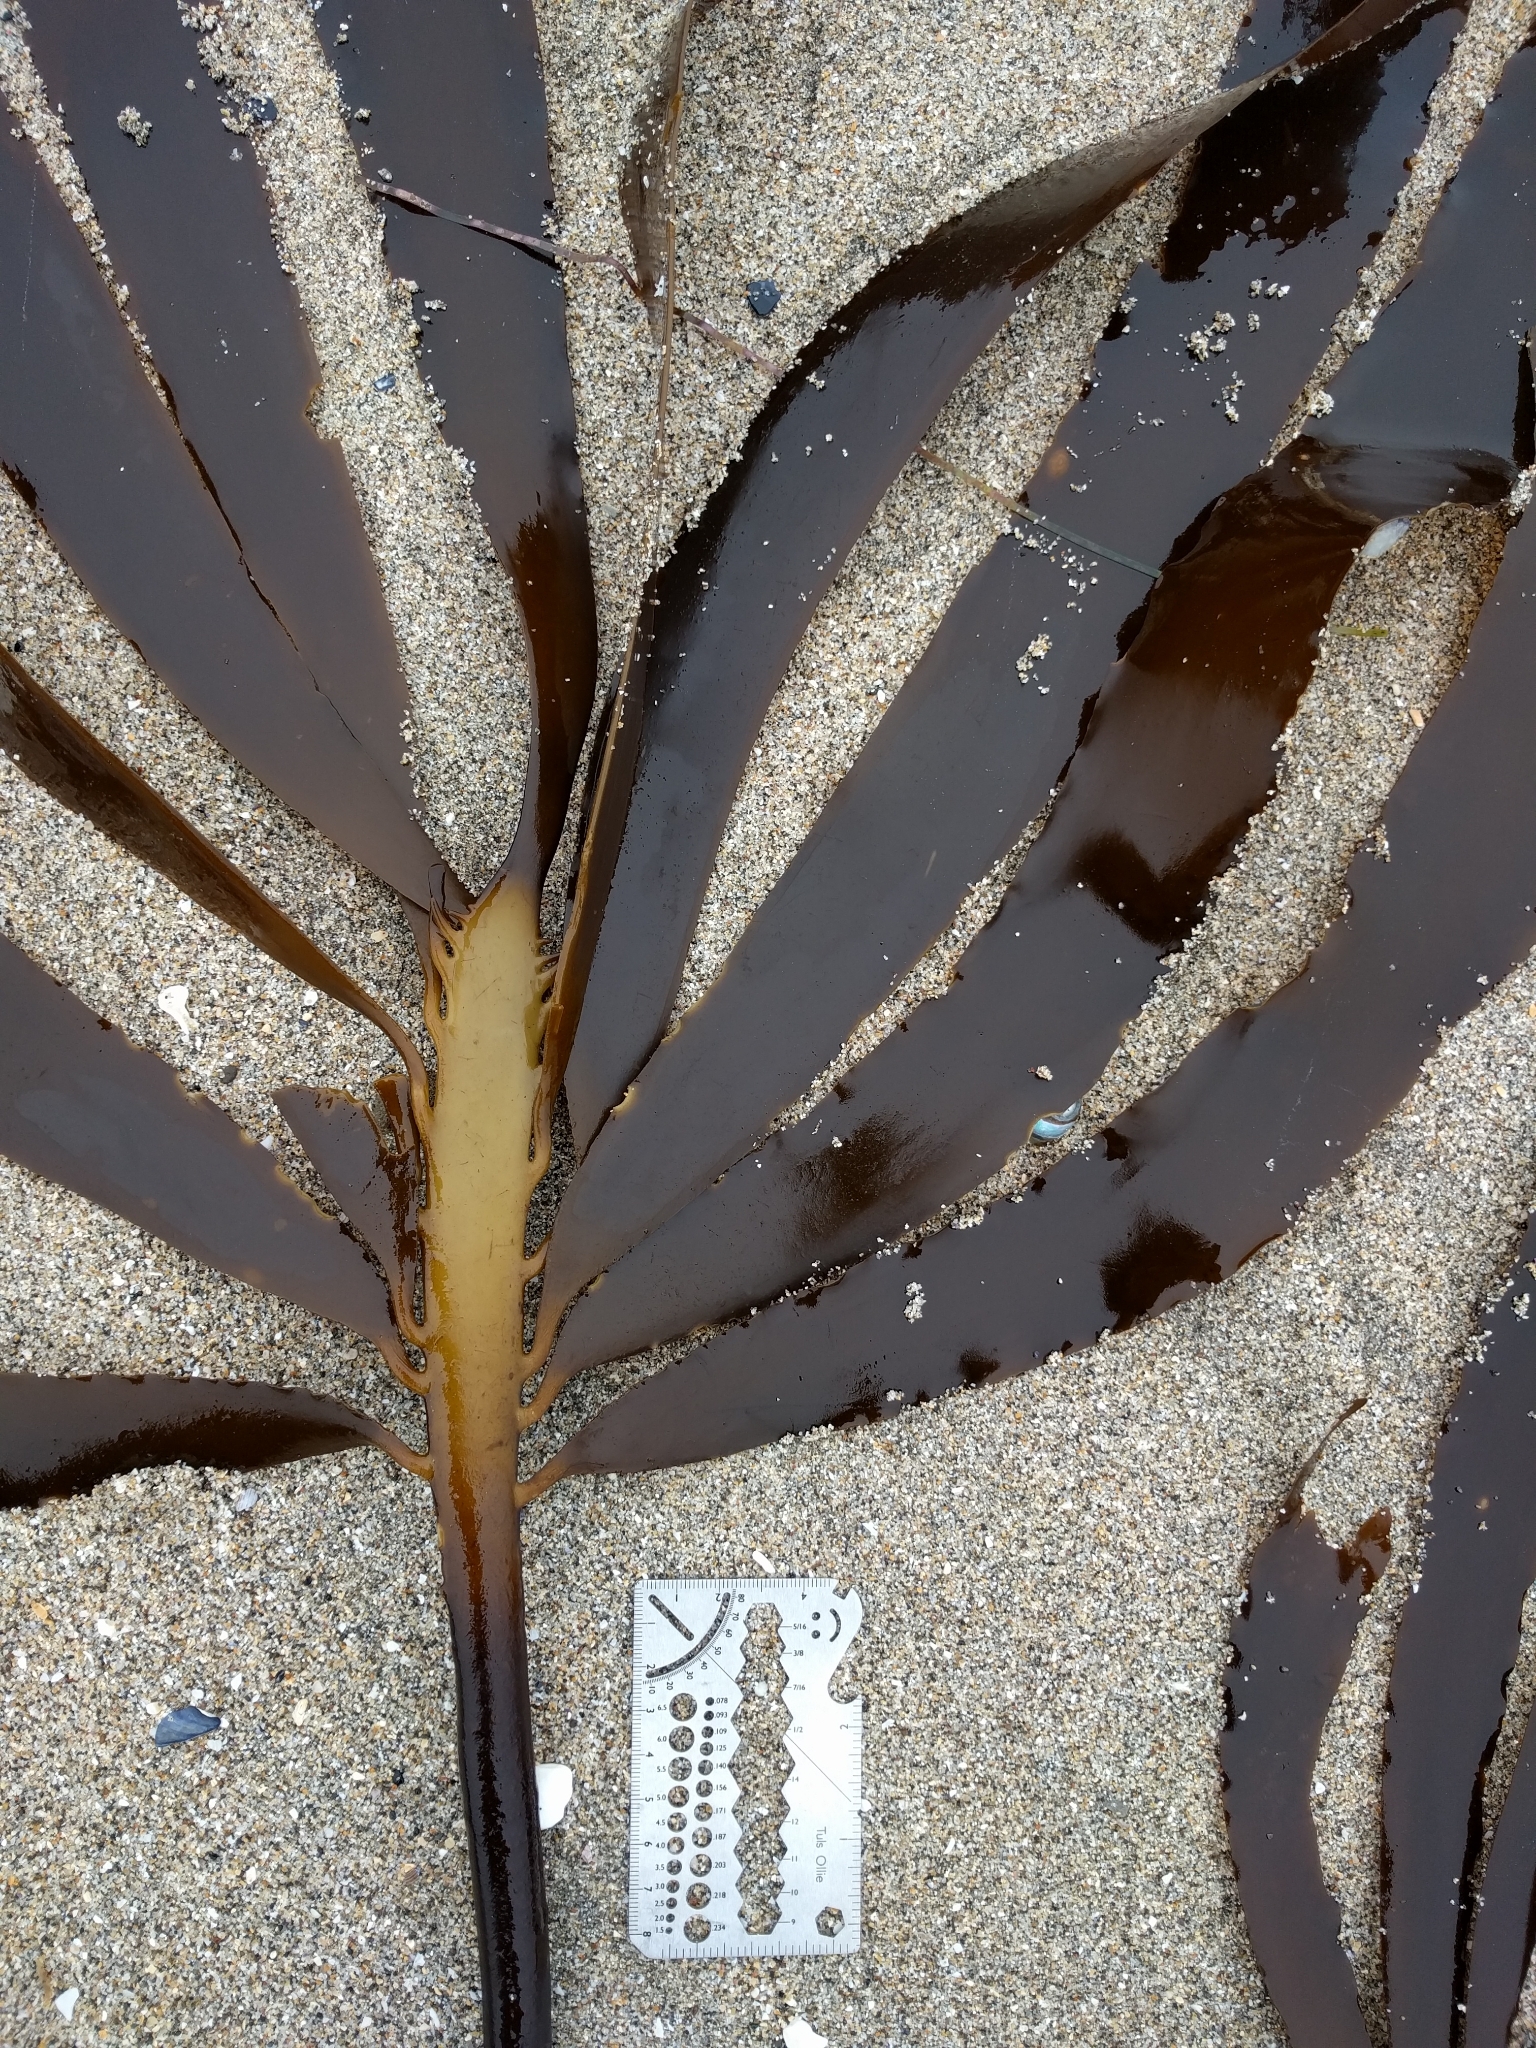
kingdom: Chromista
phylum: Ochrophyta
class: Phaeophyceae
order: Laminariales
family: Alariaceae
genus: Pterygophora
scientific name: Pterygophora californica
